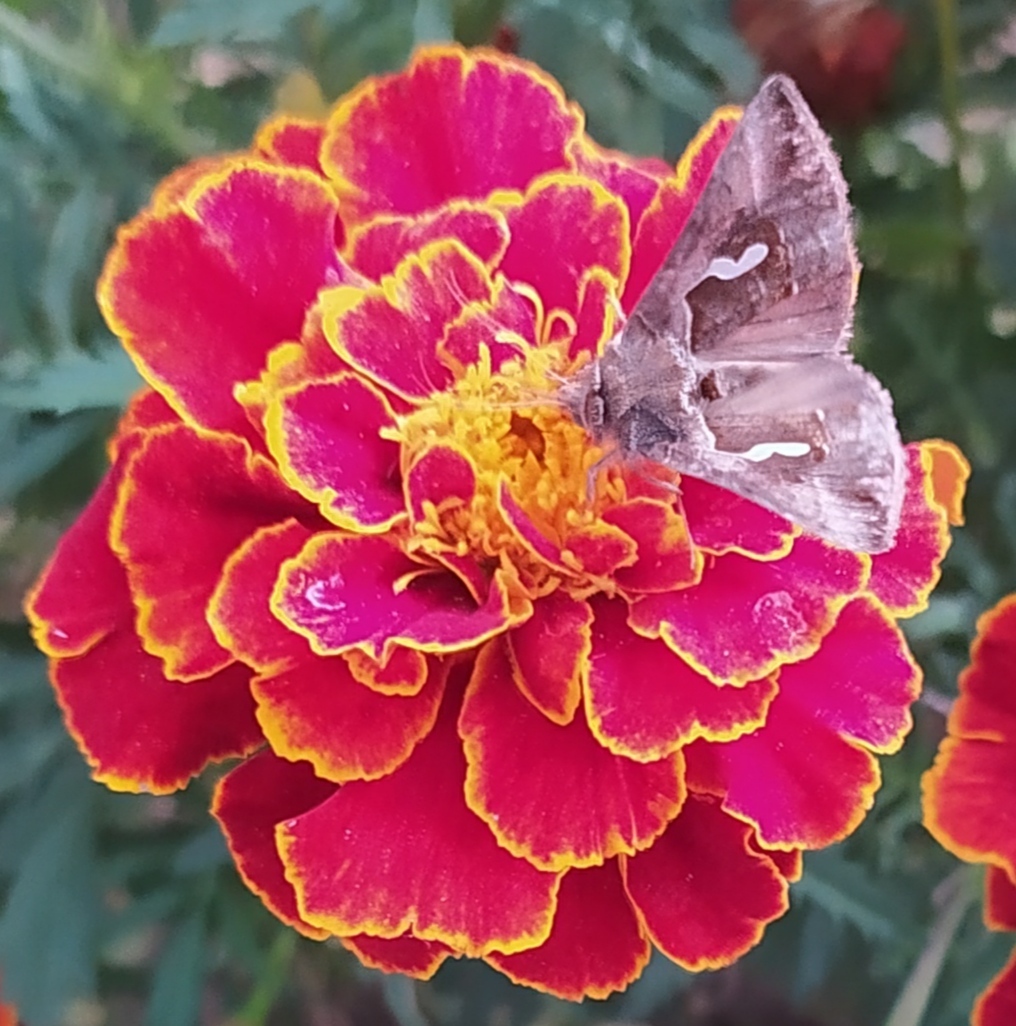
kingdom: Animalia
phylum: Arthropoda
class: Insecta
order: Lepidoptera
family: Noctuidae
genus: Macdunnoughia
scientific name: Macdunnoughia confusa
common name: Dewick's plusia
